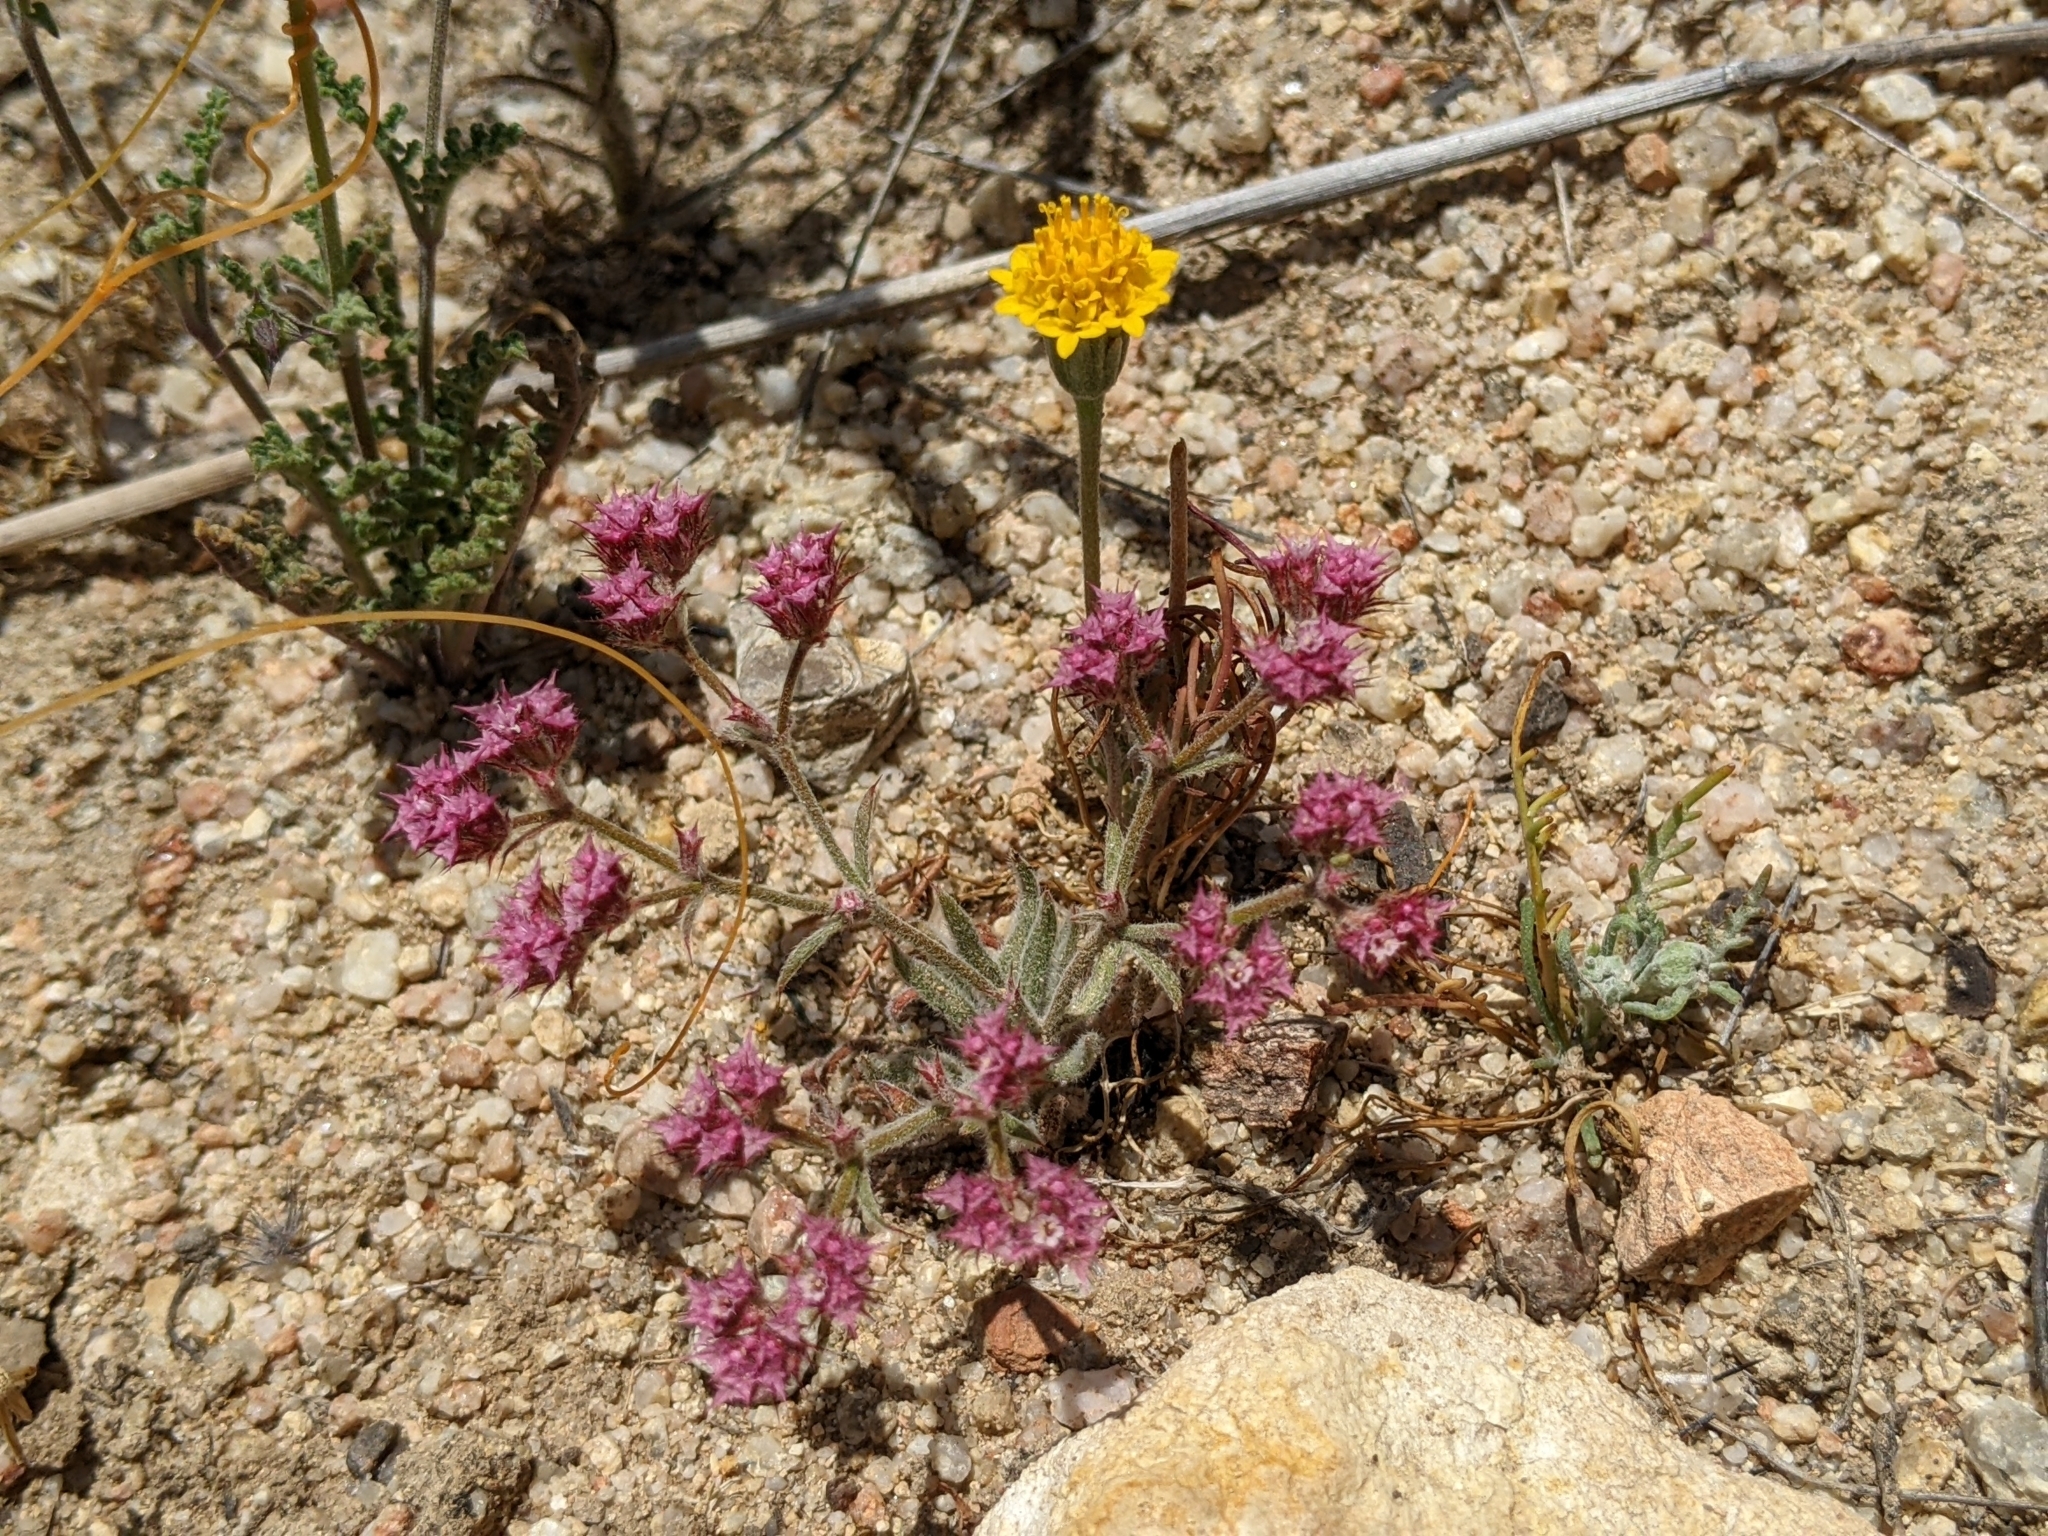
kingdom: Plantae
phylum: Tracheophyta
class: Magnoliopsida
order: Caryophyllales
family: Polygonaceae
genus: Chorizanthe
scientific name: Chorizanthe douglasii
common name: Douglas's spineflower
